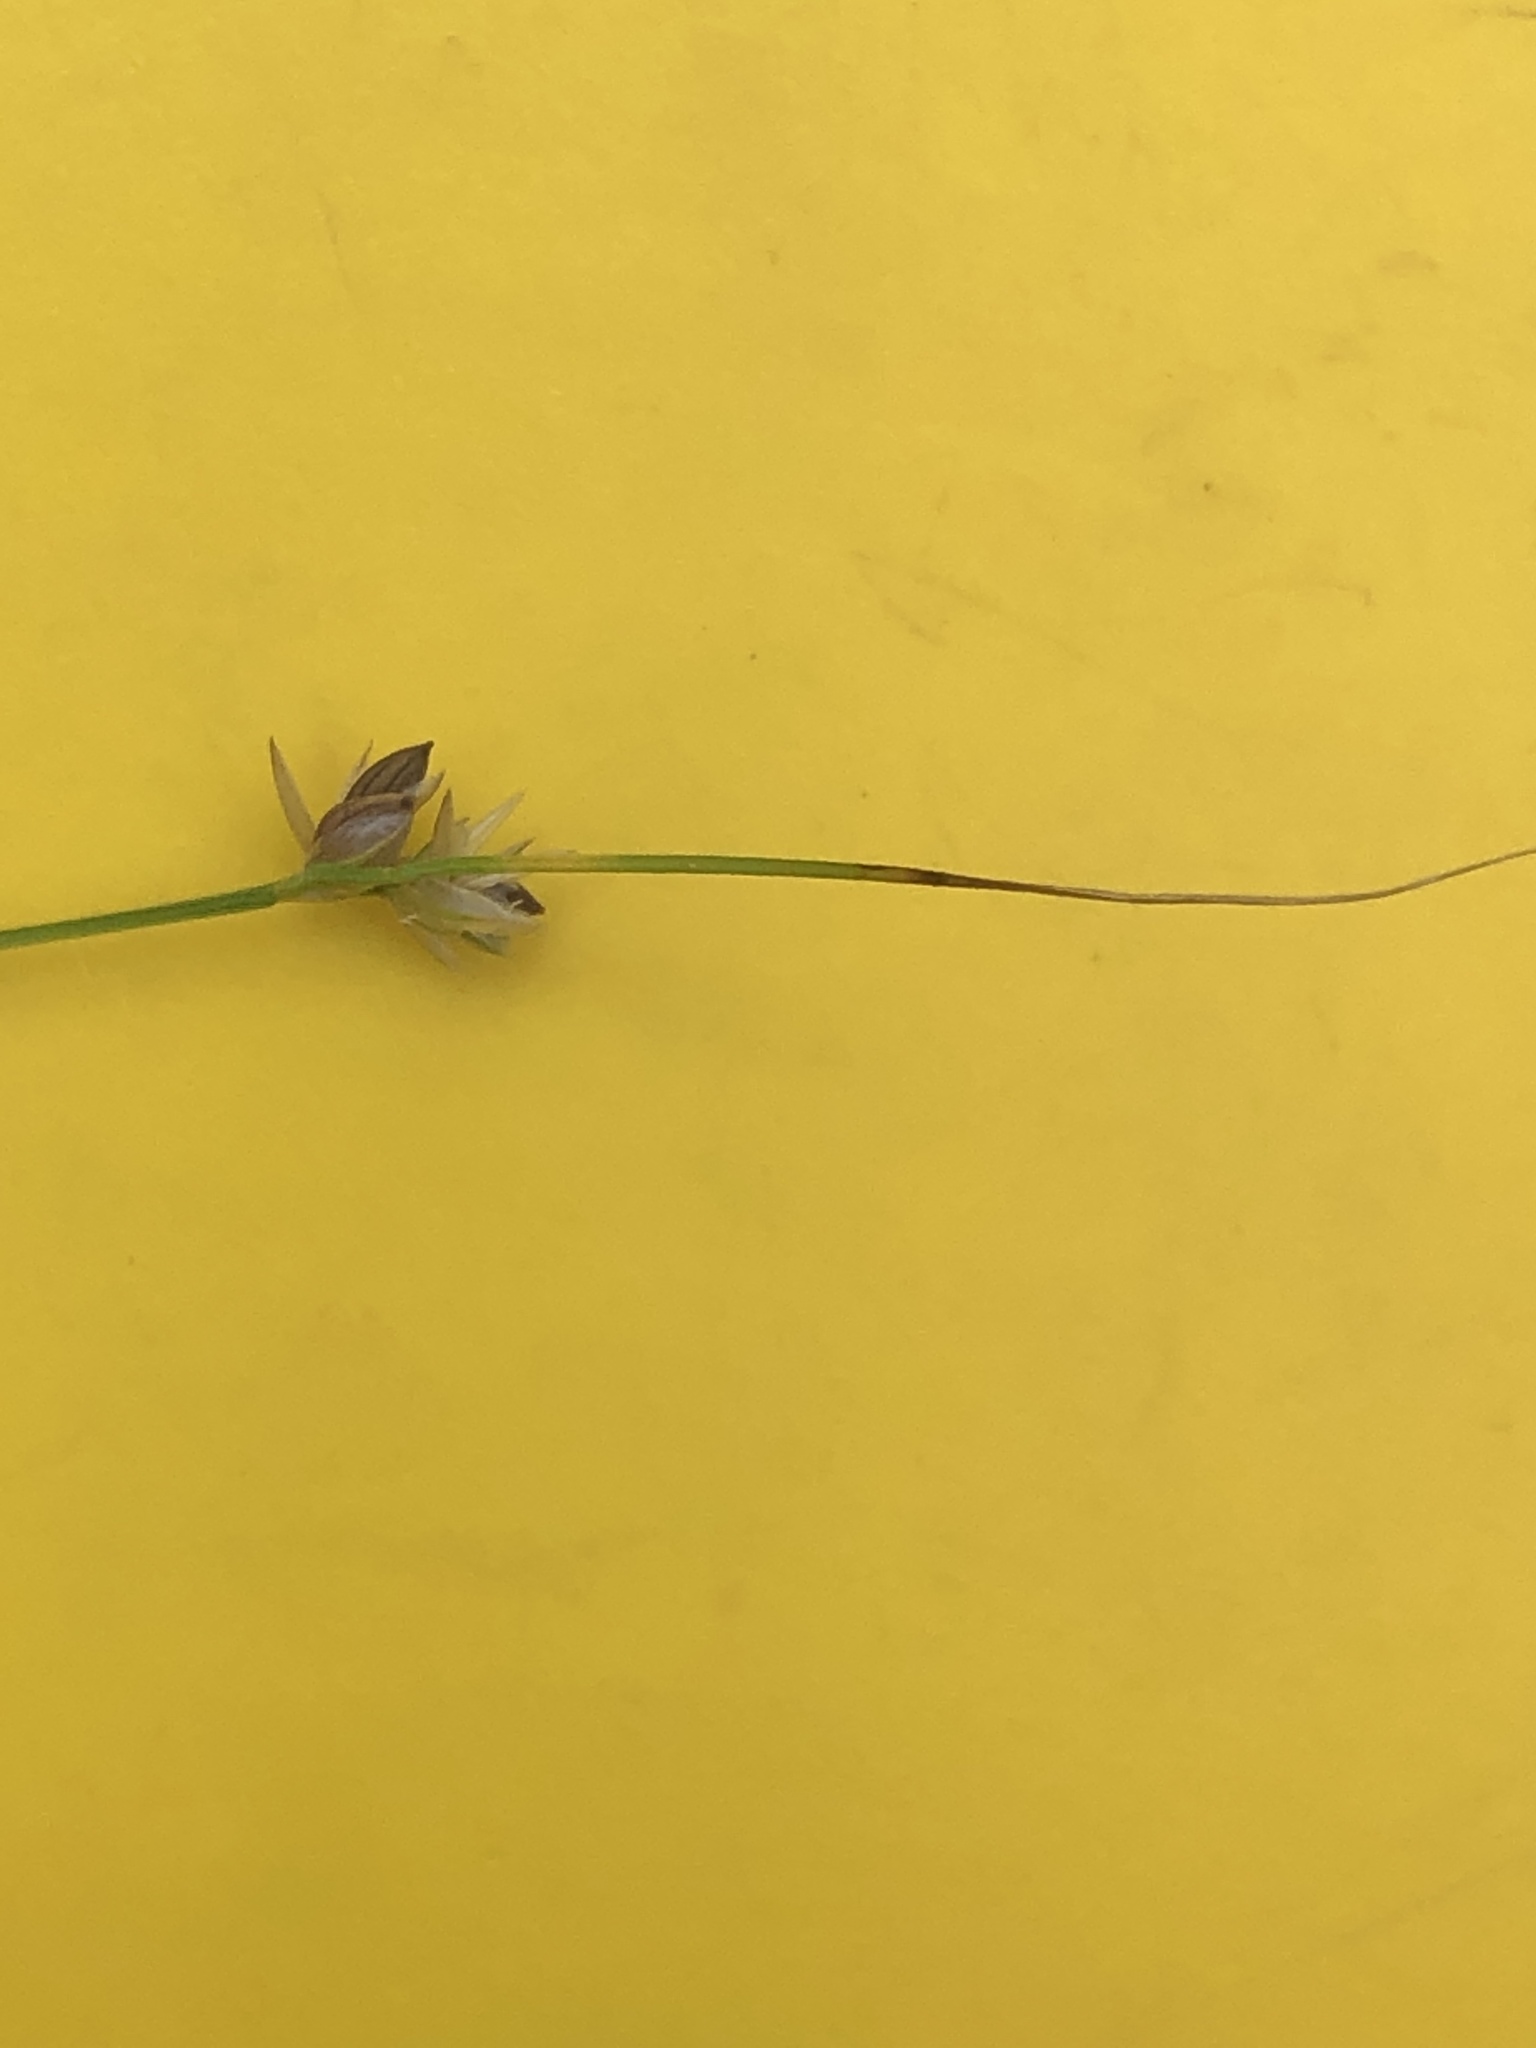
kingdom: Plantae
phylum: Tracheophyta
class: Liliopsida
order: Poales
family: Cyperaceae
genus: Carex
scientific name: Carex disperma
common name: Short-leaved sedge
